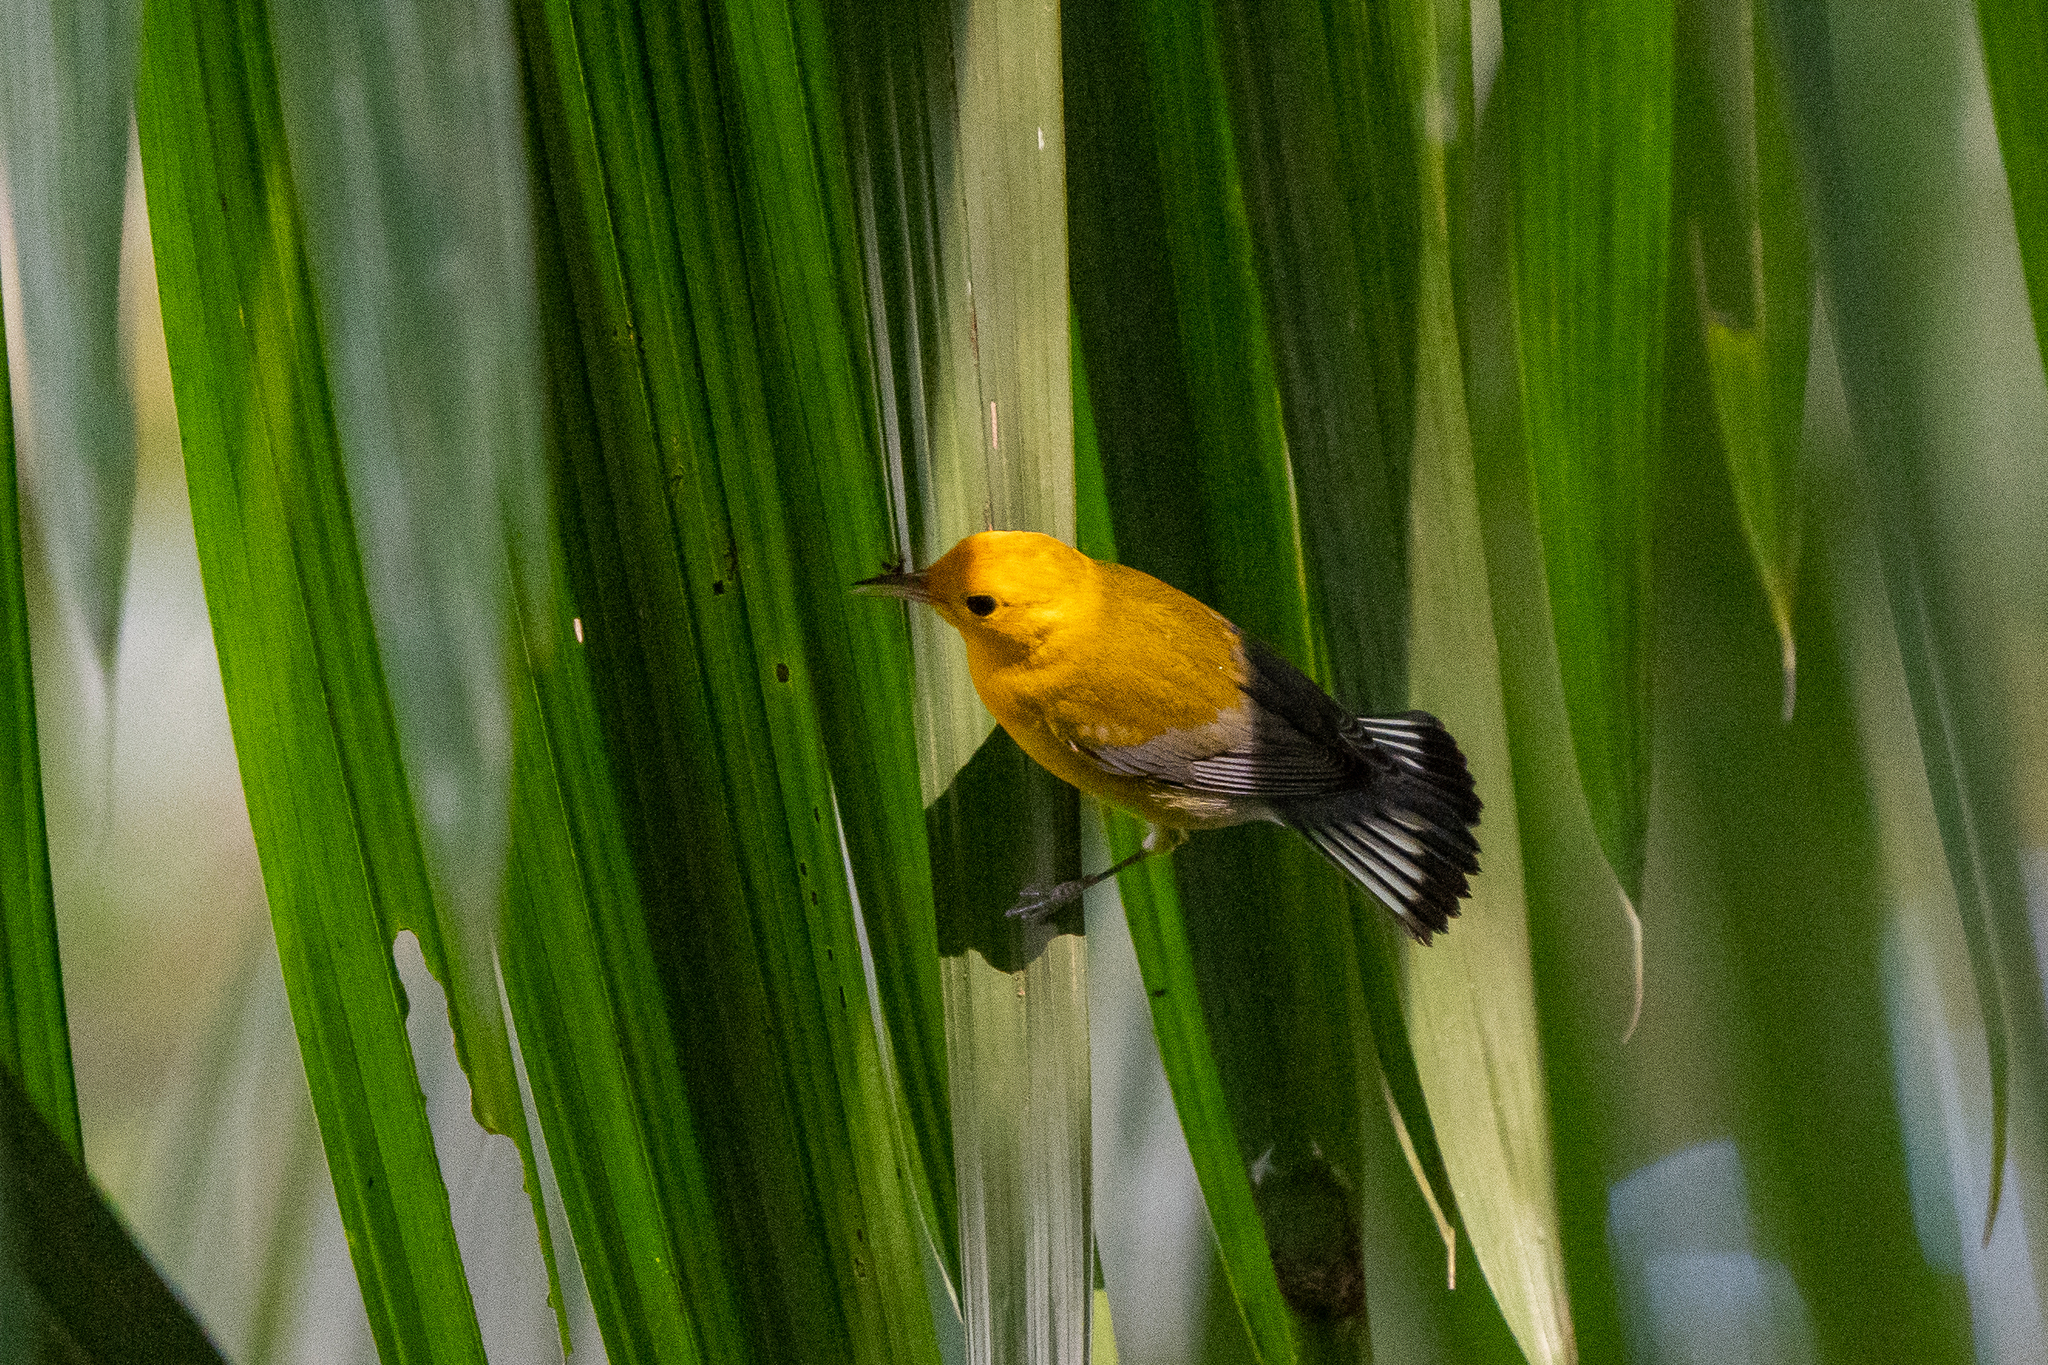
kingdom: Animalia
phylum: Chordata
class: Aves
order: Passeriformes
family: Parulidae
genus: Protonotaria
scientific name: Protonotaria citrea
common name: Prothonotary warbler
